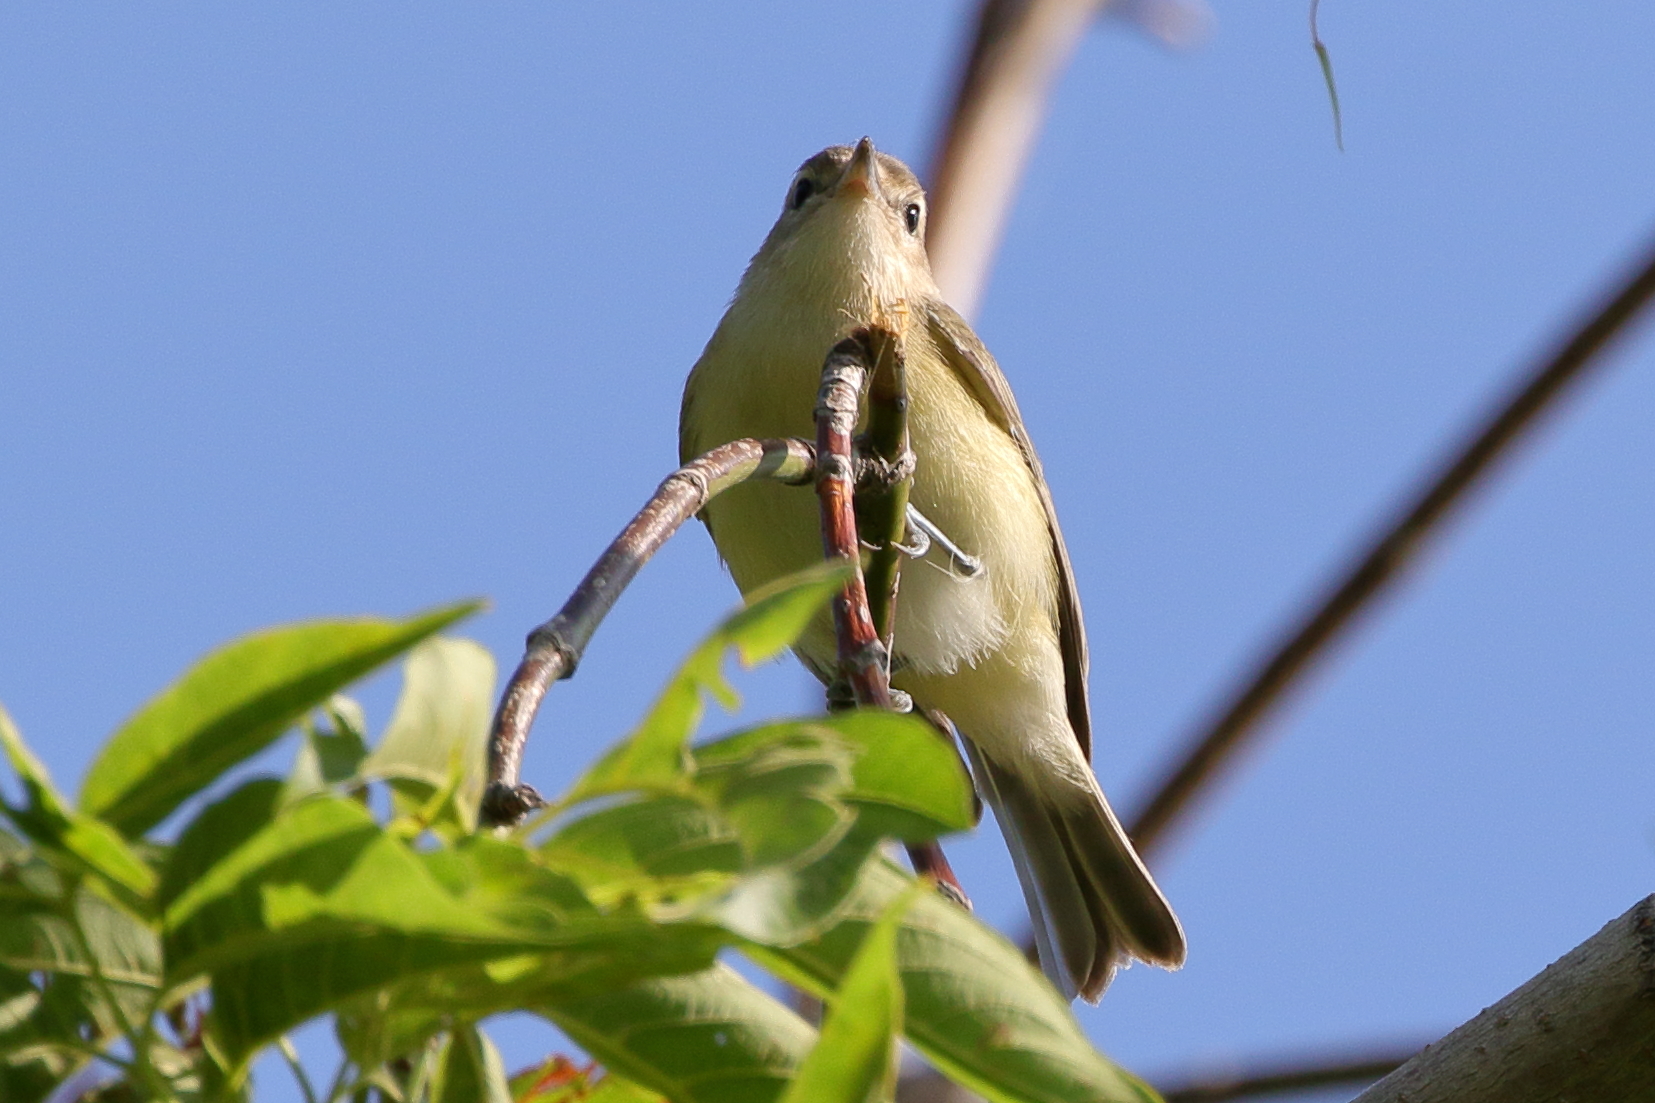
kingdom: Animalia
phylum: Chordata
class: Aves
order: Passeriformes
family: Vireonidae
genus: Vireo
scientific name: Vireo gilvus
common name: Warbling vireo
